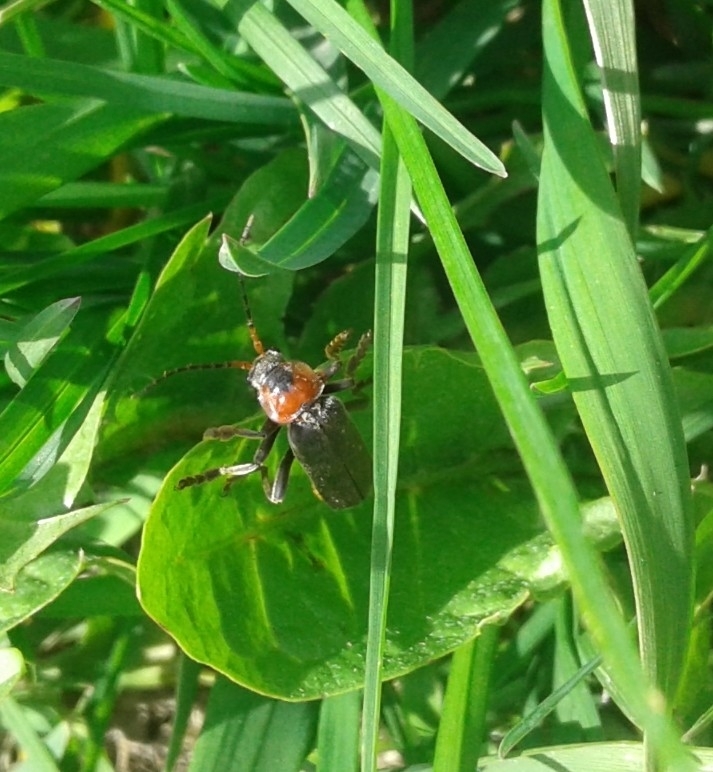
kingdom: Animalia
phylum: Arthropoda
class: Insecta
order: Coleoptera
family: Cantharidae
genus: Cantharis
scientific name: Cantharis fusca
